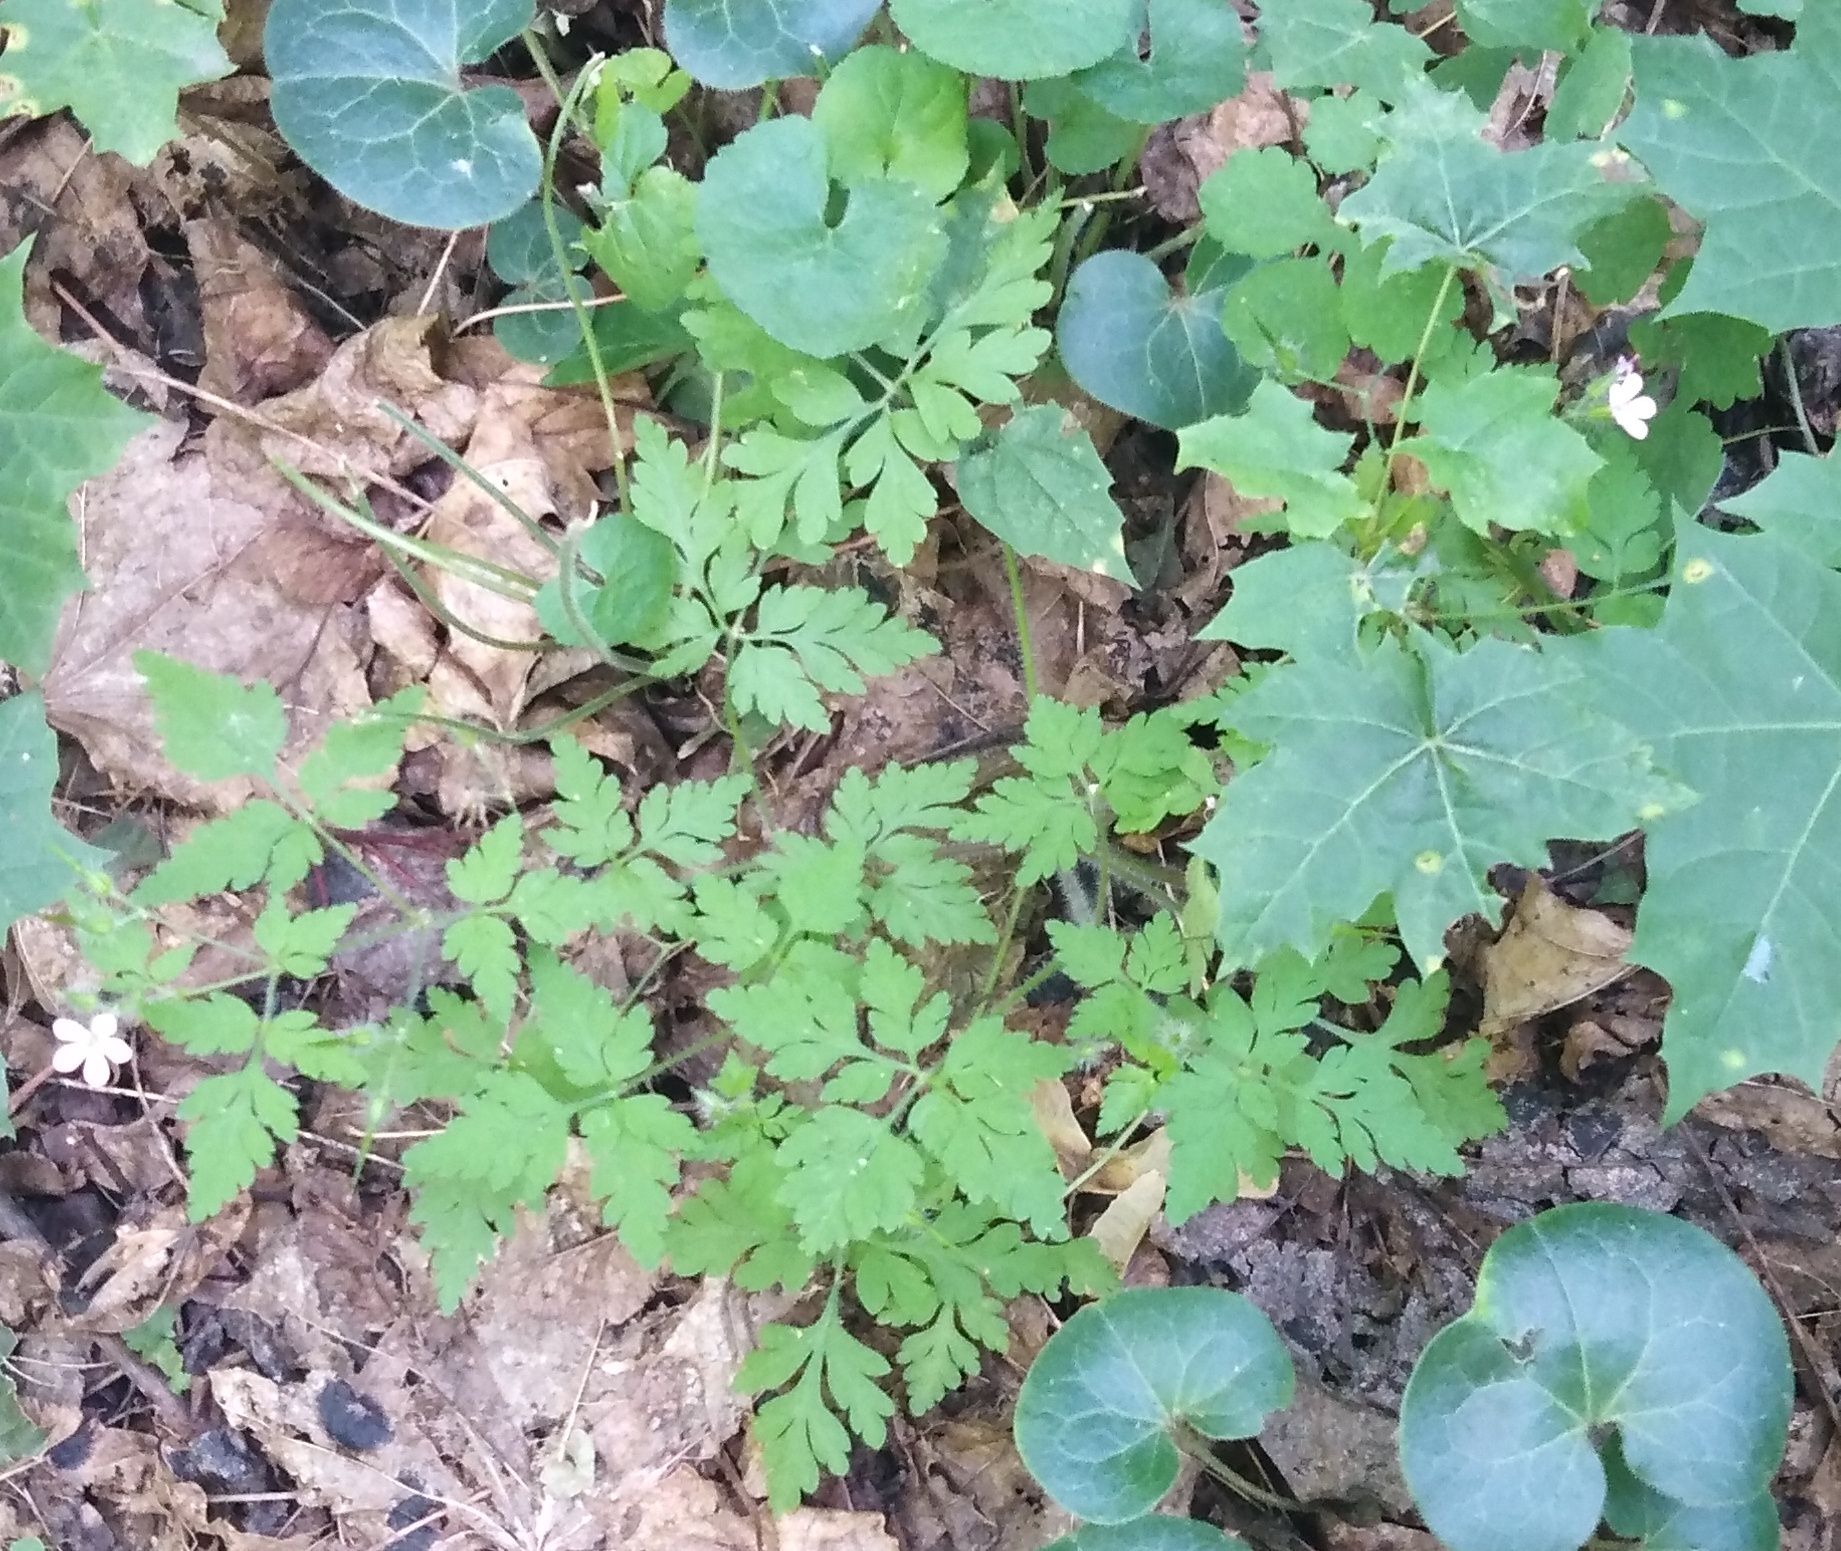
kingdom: Plantae
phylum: Tracheophyta
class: Magnoliopsida
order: Geraniales
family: Geraniaceae
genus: Geranium
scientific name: Geranium robertianum
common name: Herb-robert
